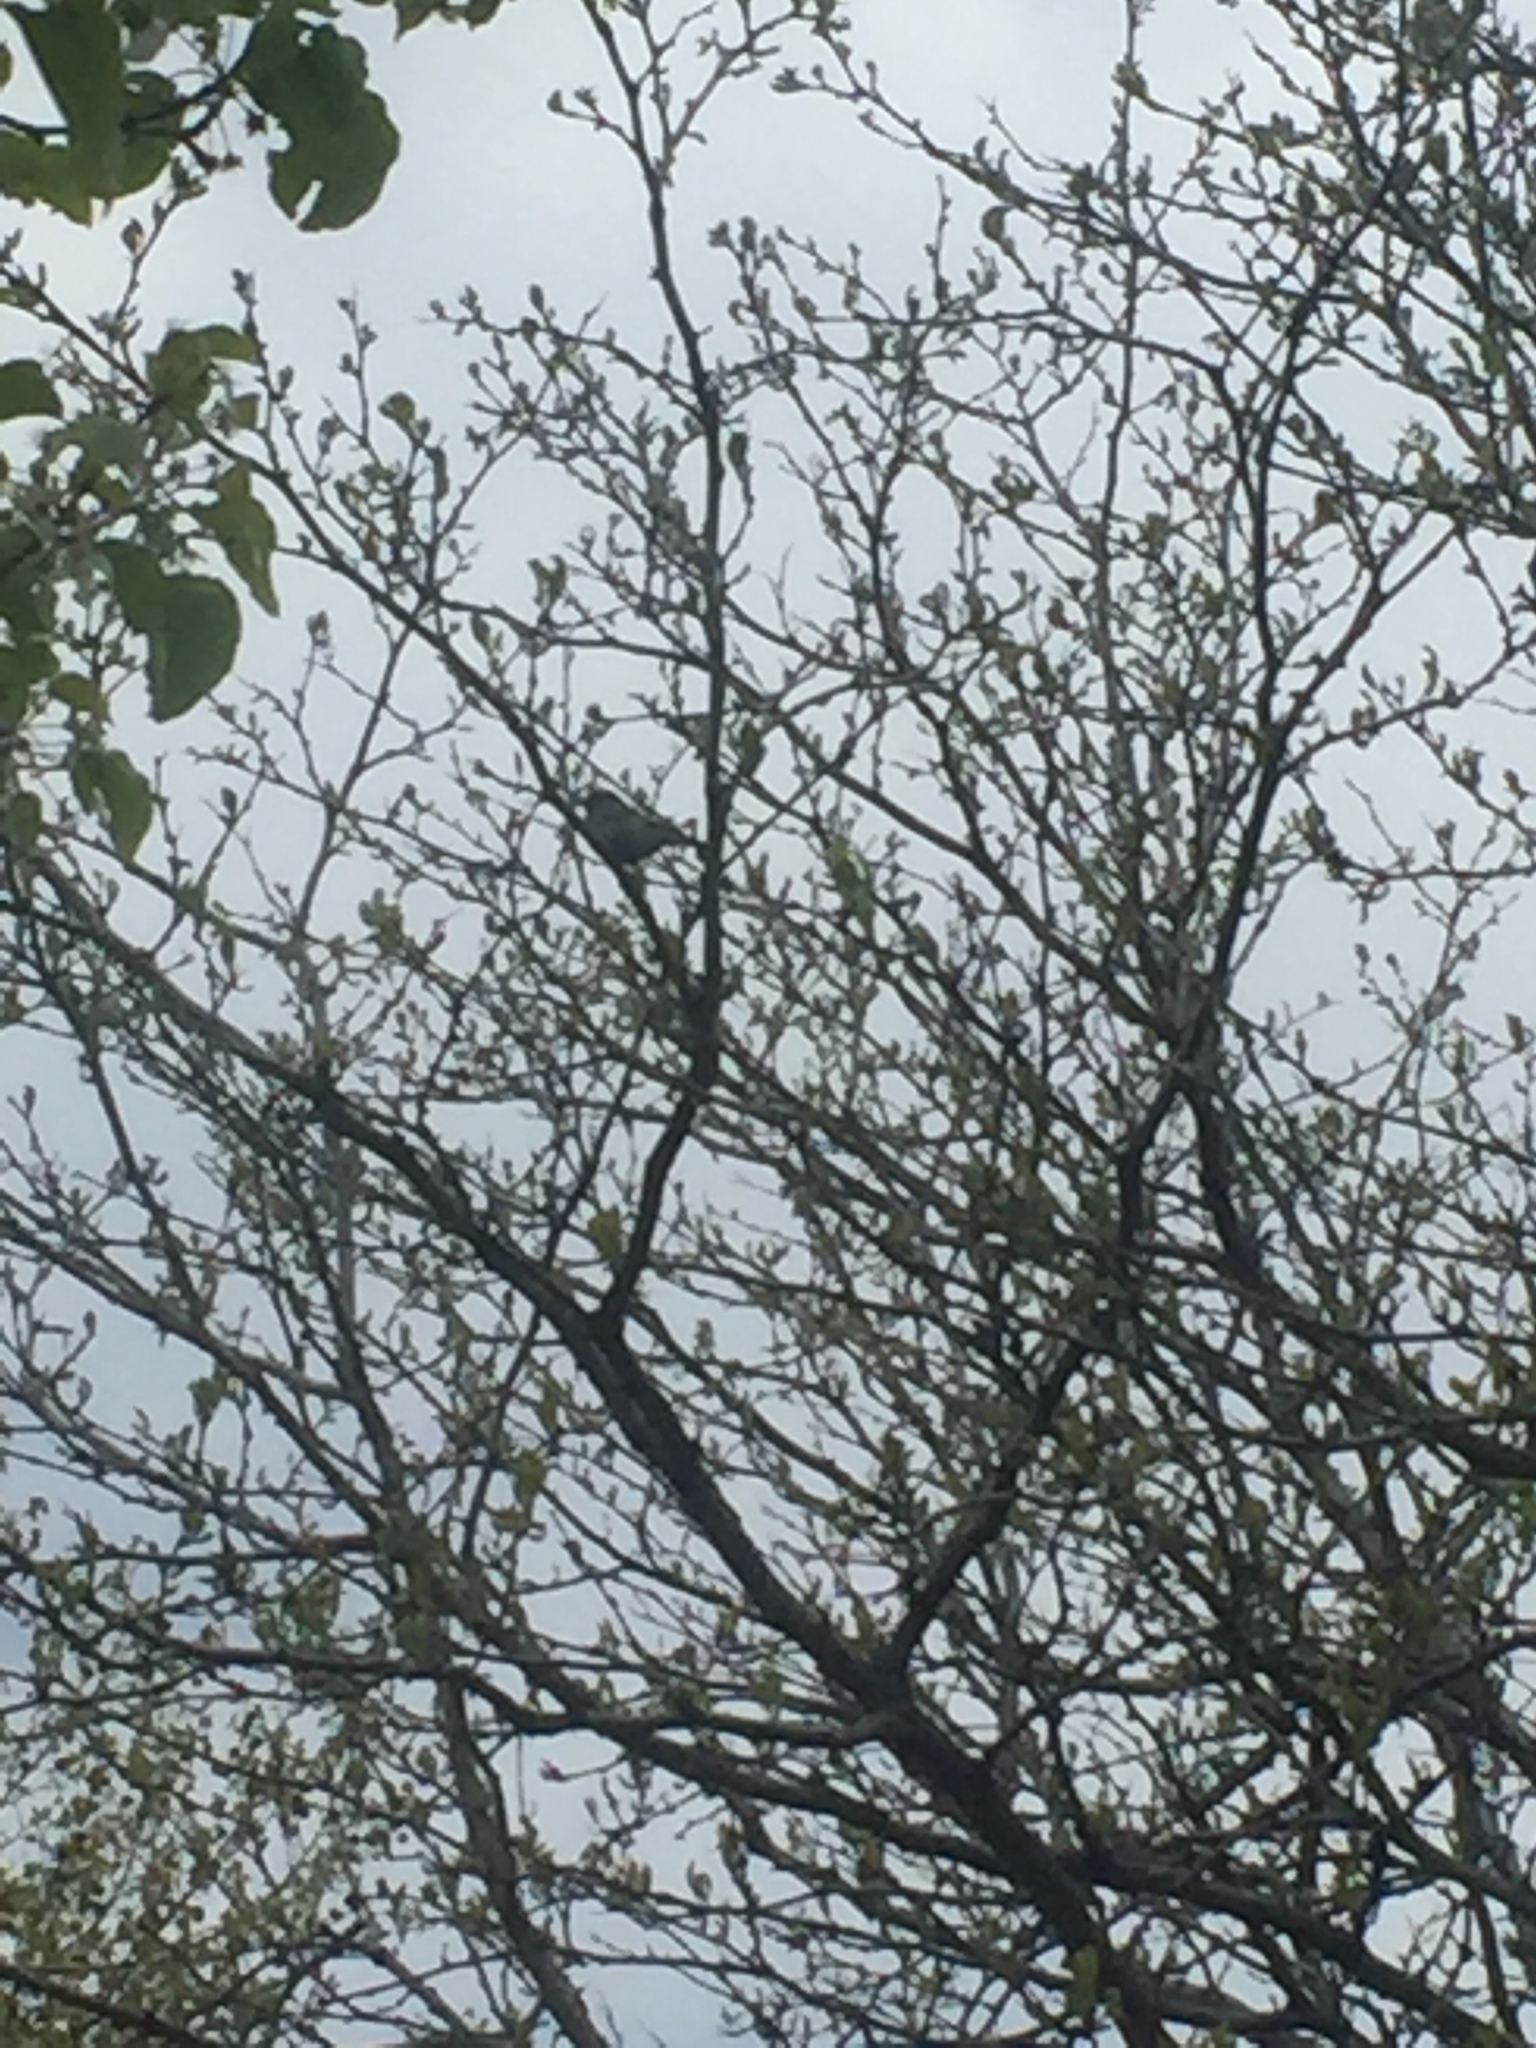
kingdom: Animalia
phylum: Chordata
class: Aves
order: Passeriformes
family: Passeridae
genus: Passer
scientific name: Passer domesticus
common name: House sparrow
